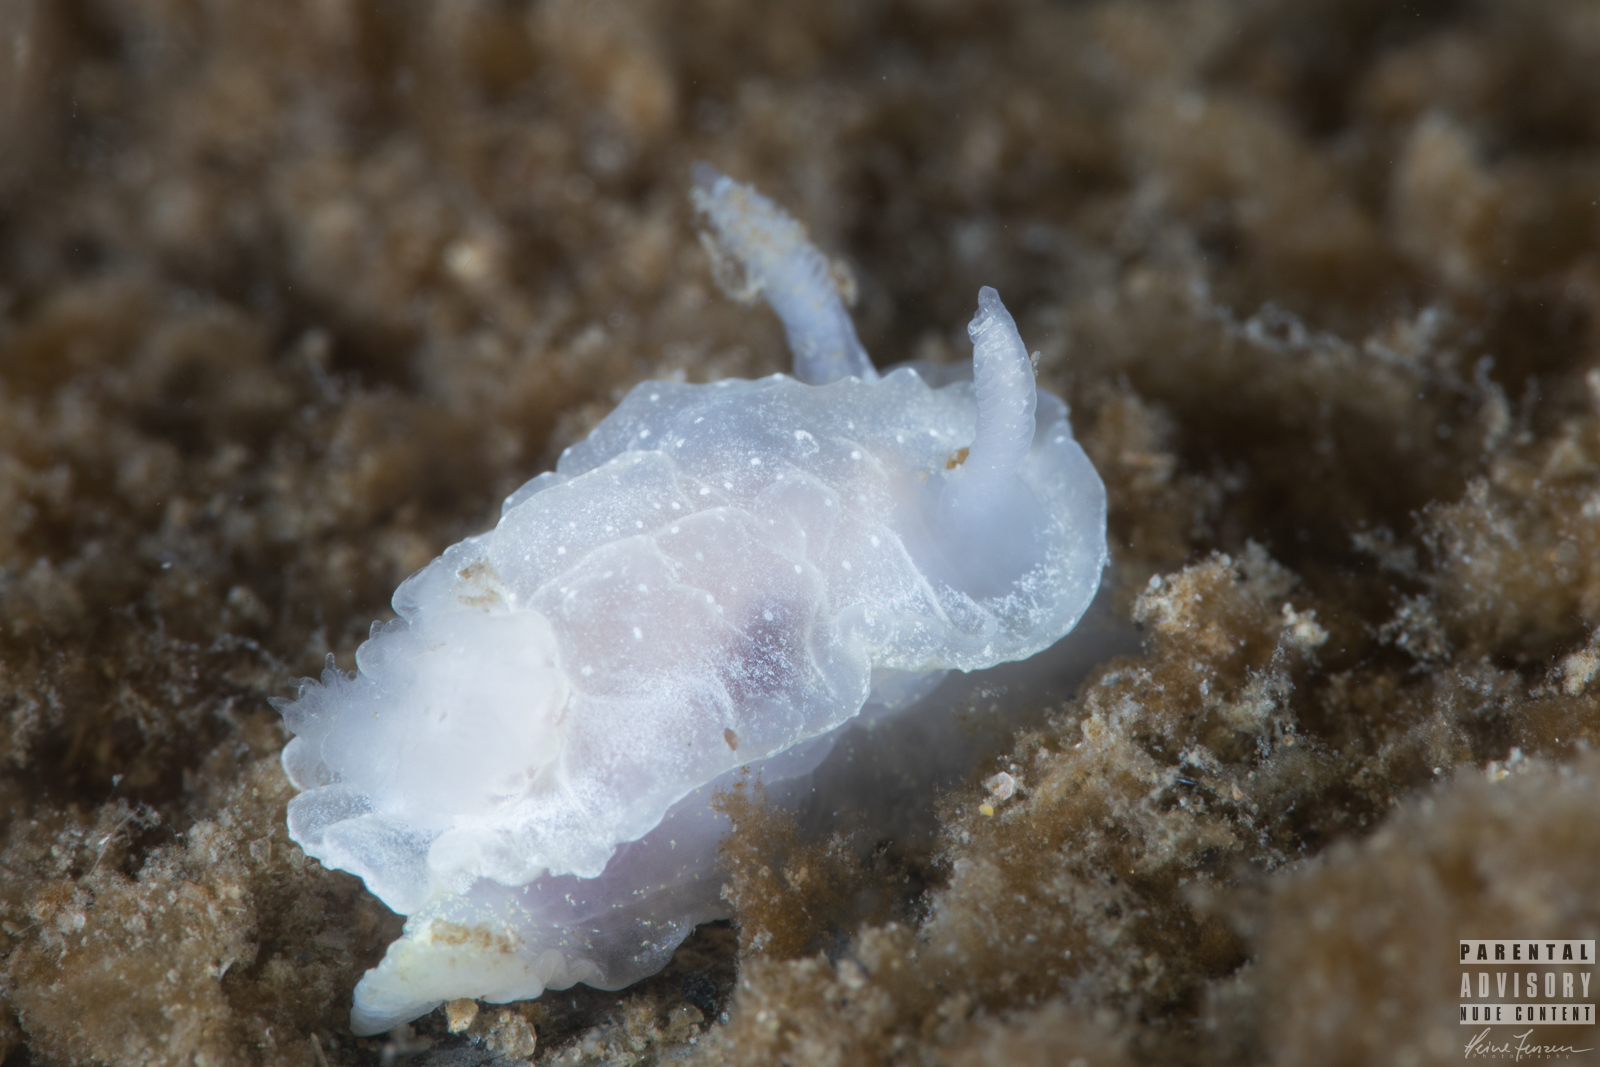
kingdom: Animalia
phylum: Mollusca
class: Gastropoda
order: Nudibranchia
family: Goniodorididae
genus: Okenia
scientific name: Okenia
